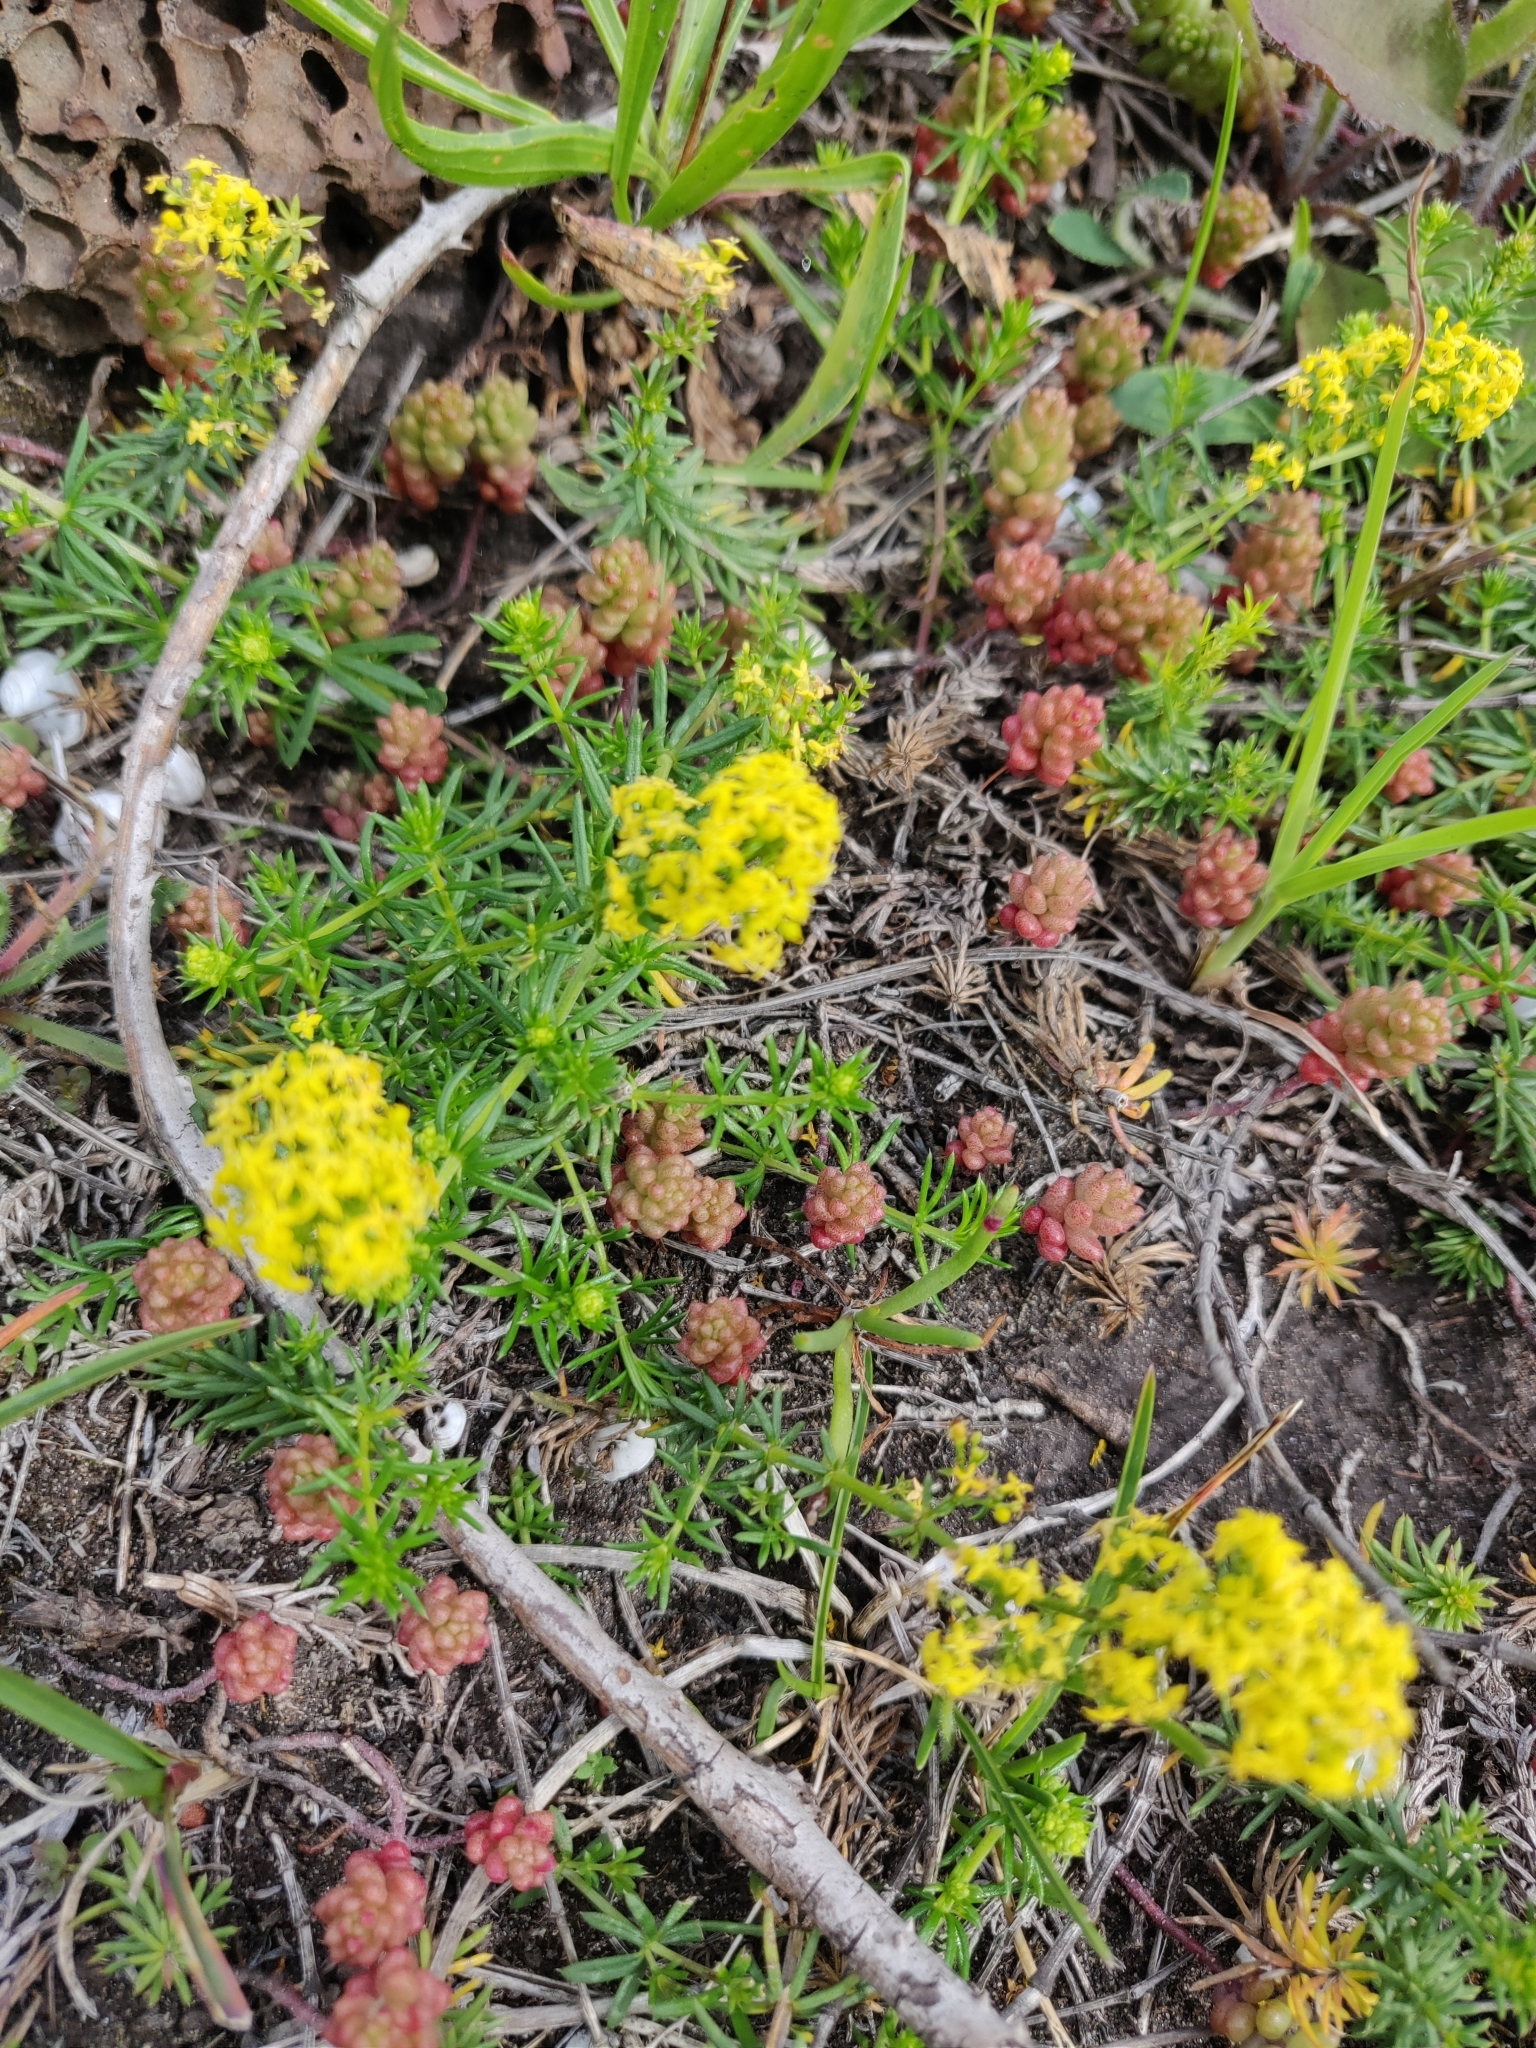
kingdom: Plantae
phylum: Tracheophyta
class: Magnoliopsida
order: Gentianales
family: Rubiaceae
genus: Galium
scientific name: Galium verum
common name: Lady's bedstraw
